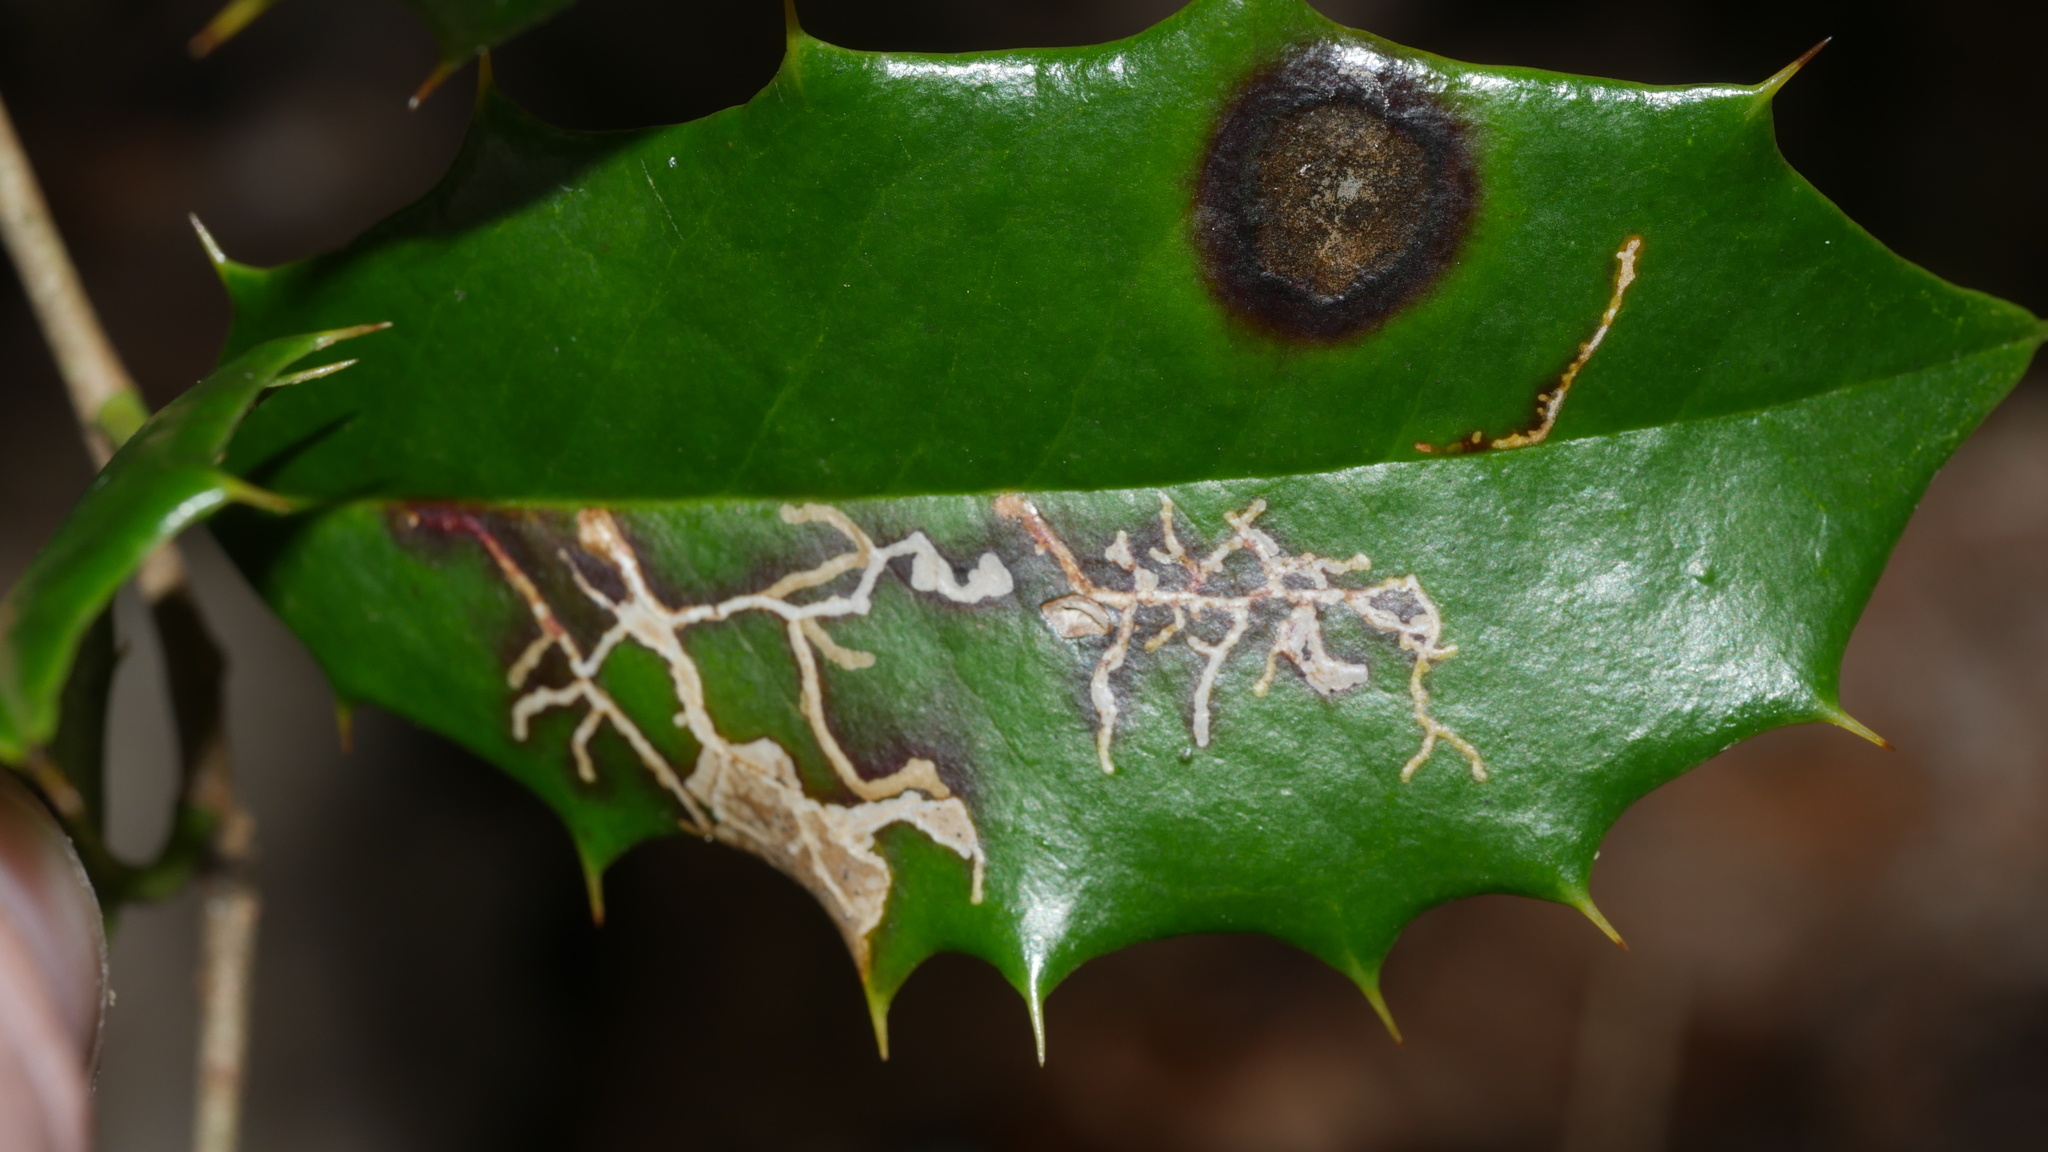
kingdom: Animalia
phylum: Arthropoda
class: Insecta
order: Lepidoptera
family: Tortricidae
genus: Rhopobota
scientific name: Rhopobota
